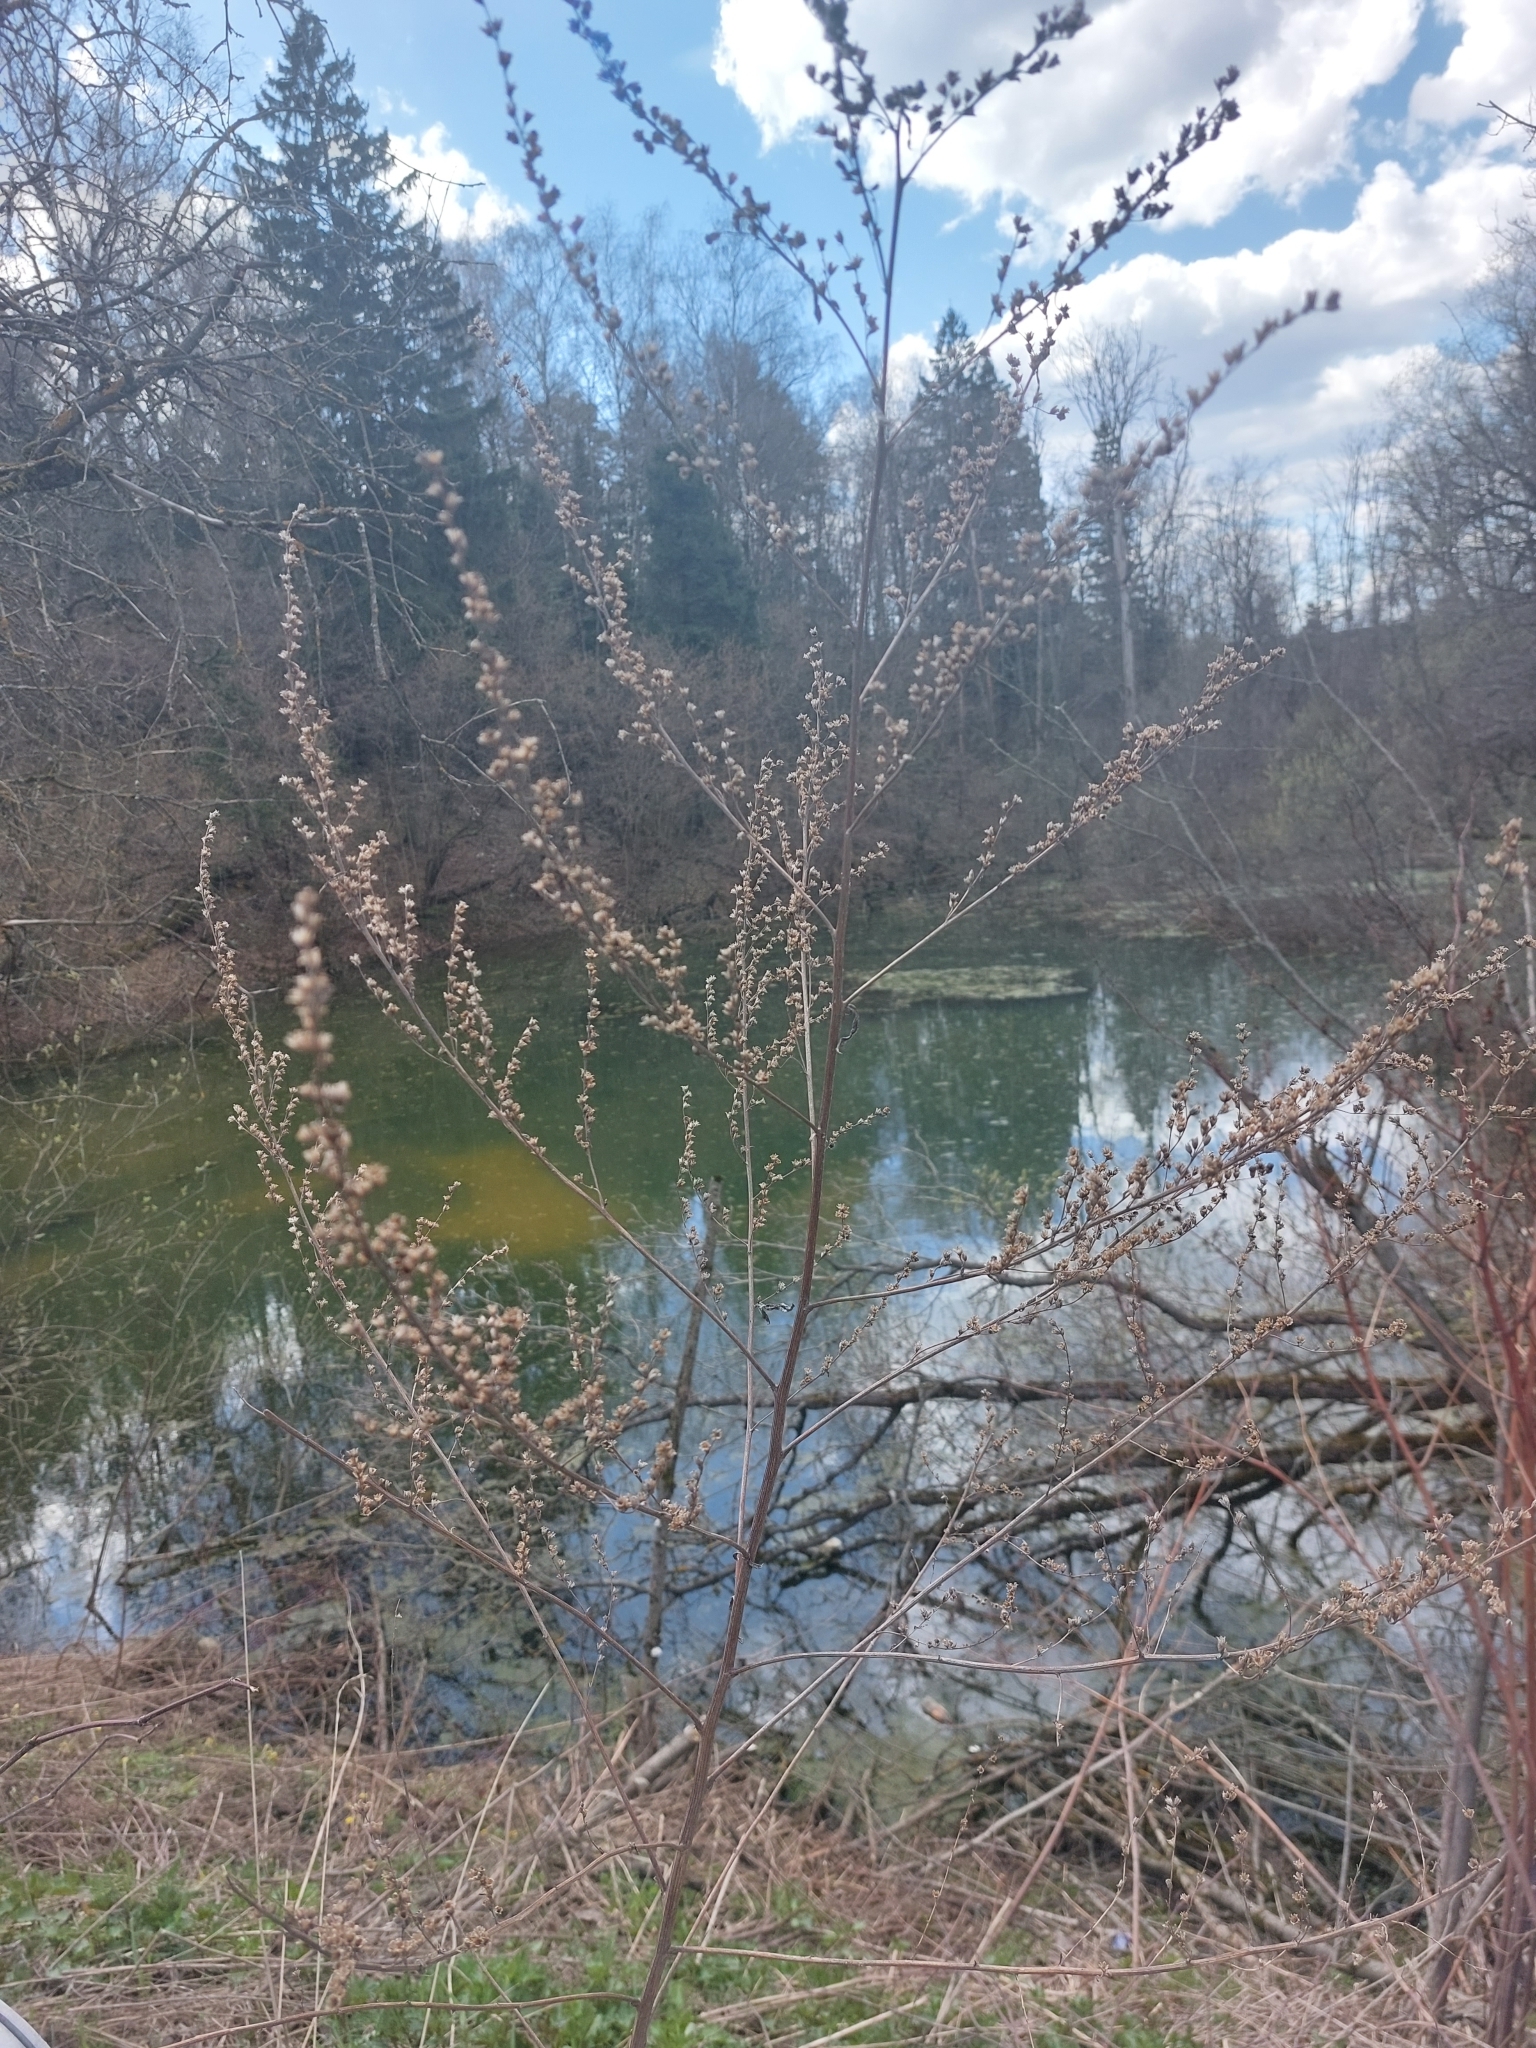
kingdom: Plantae
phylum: Tracheophyta
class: Magnoliopsida
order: Asterales
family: Asteraceae
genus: Artemisia
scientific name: Artemisia vulgaris
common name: Mugwort
